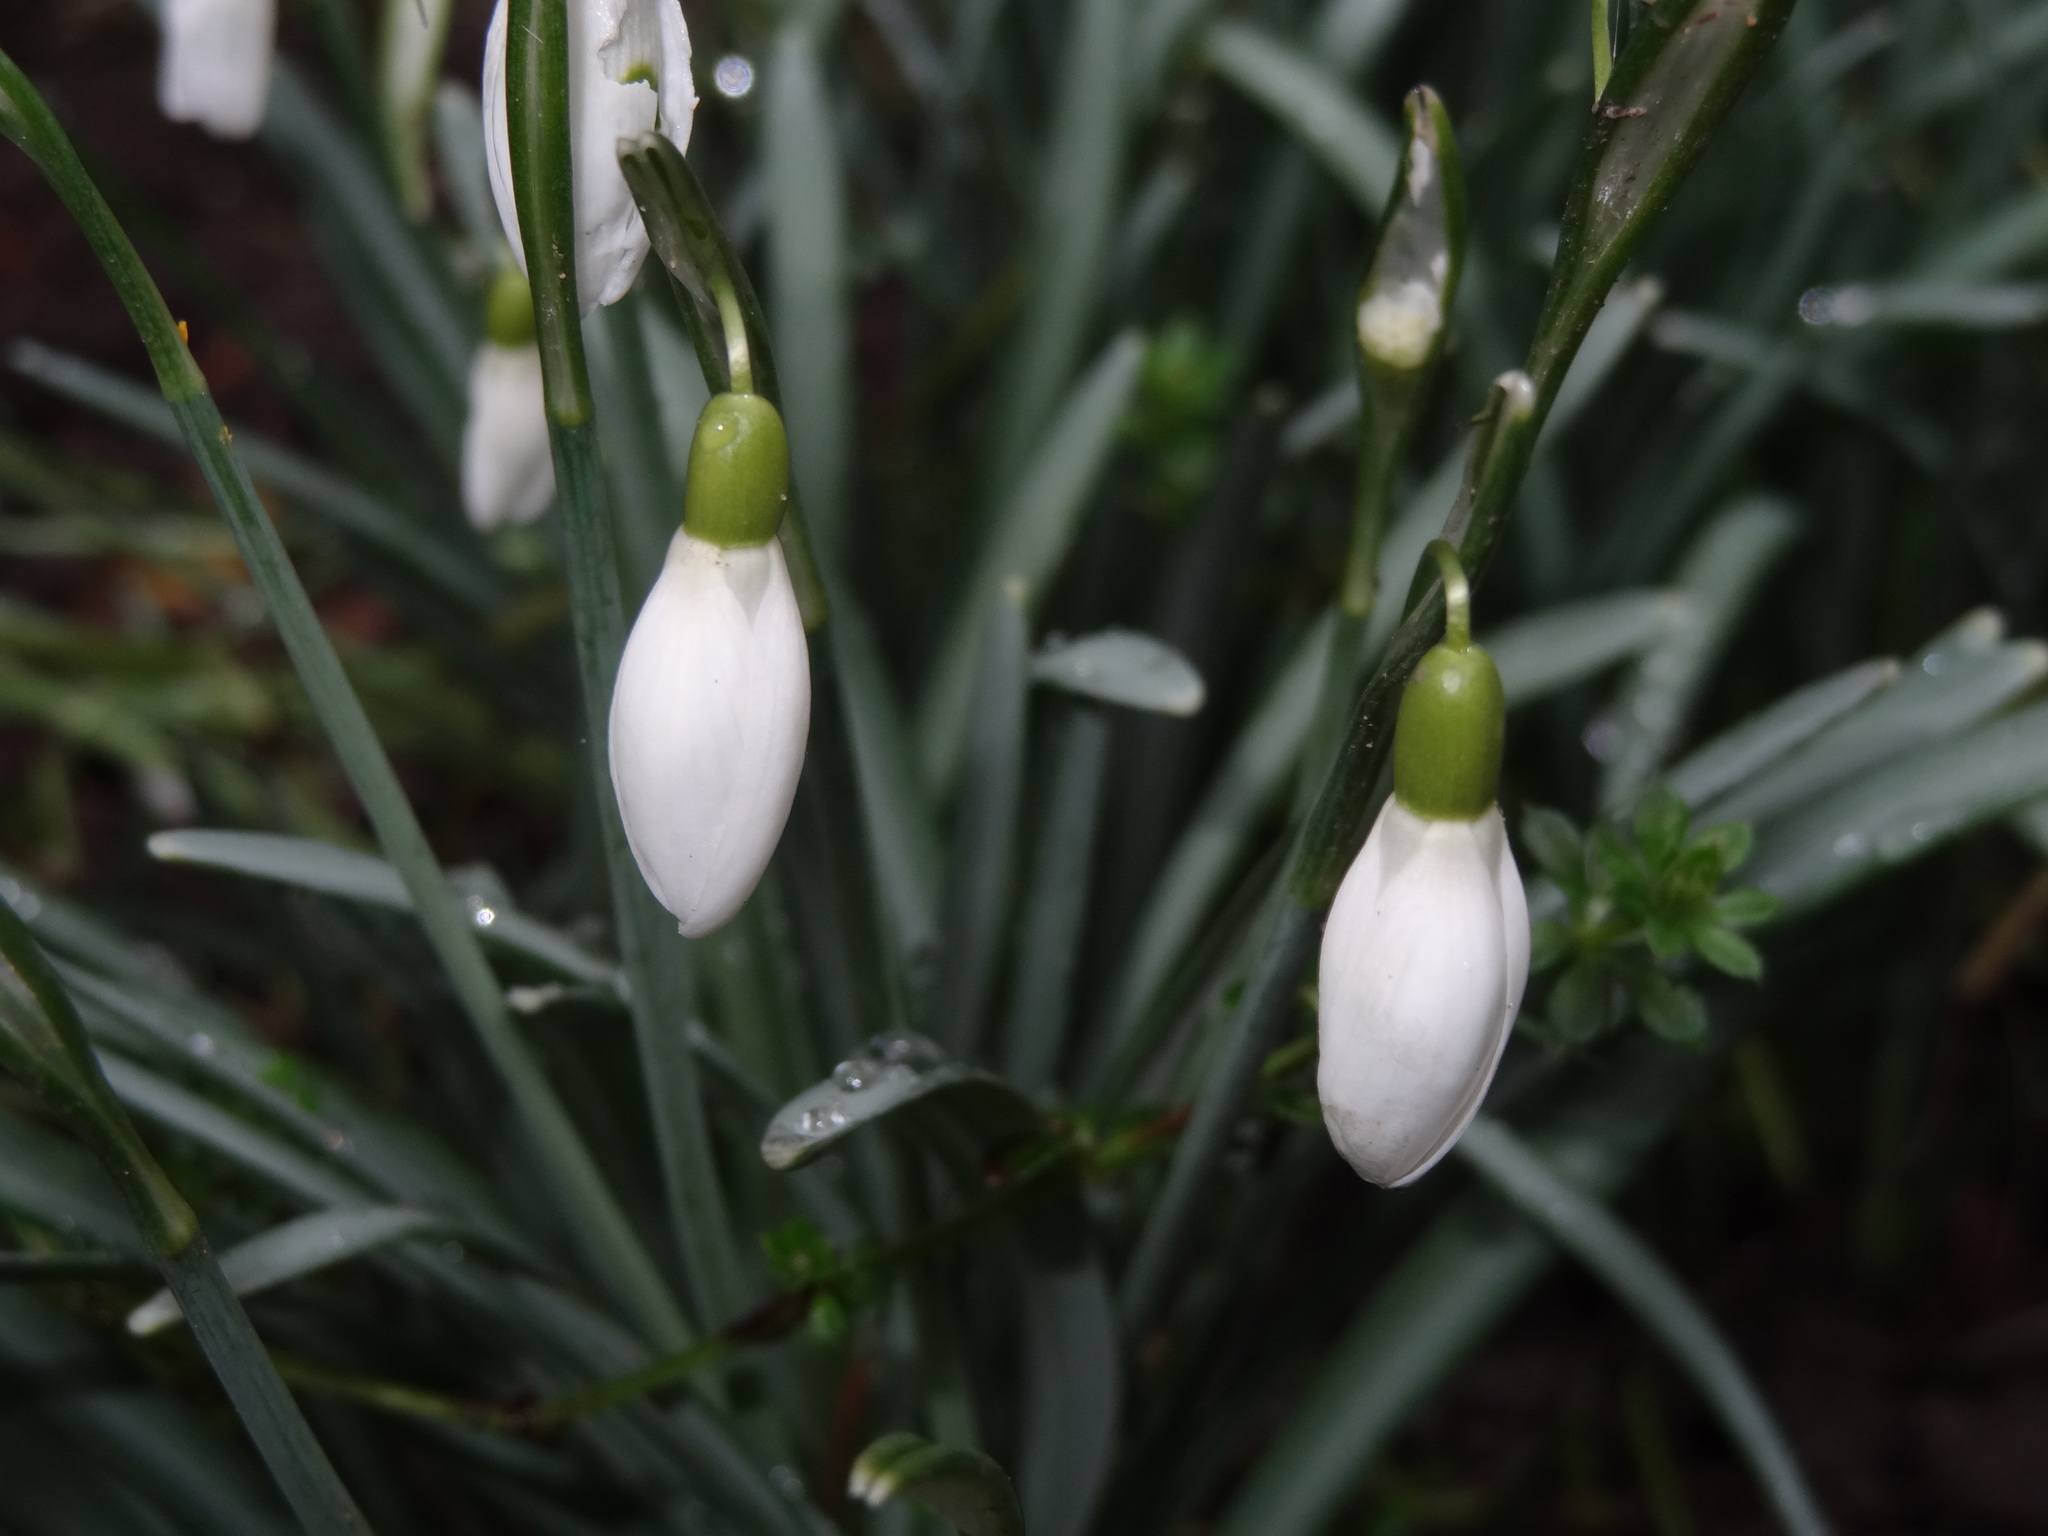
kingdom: Plantae
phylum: Tracheophyta
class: Liliopsida
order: Asparagales
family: Amaryllidaceae
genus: Galanthus
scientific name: Galanthus nivalis
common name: Snowdrop
